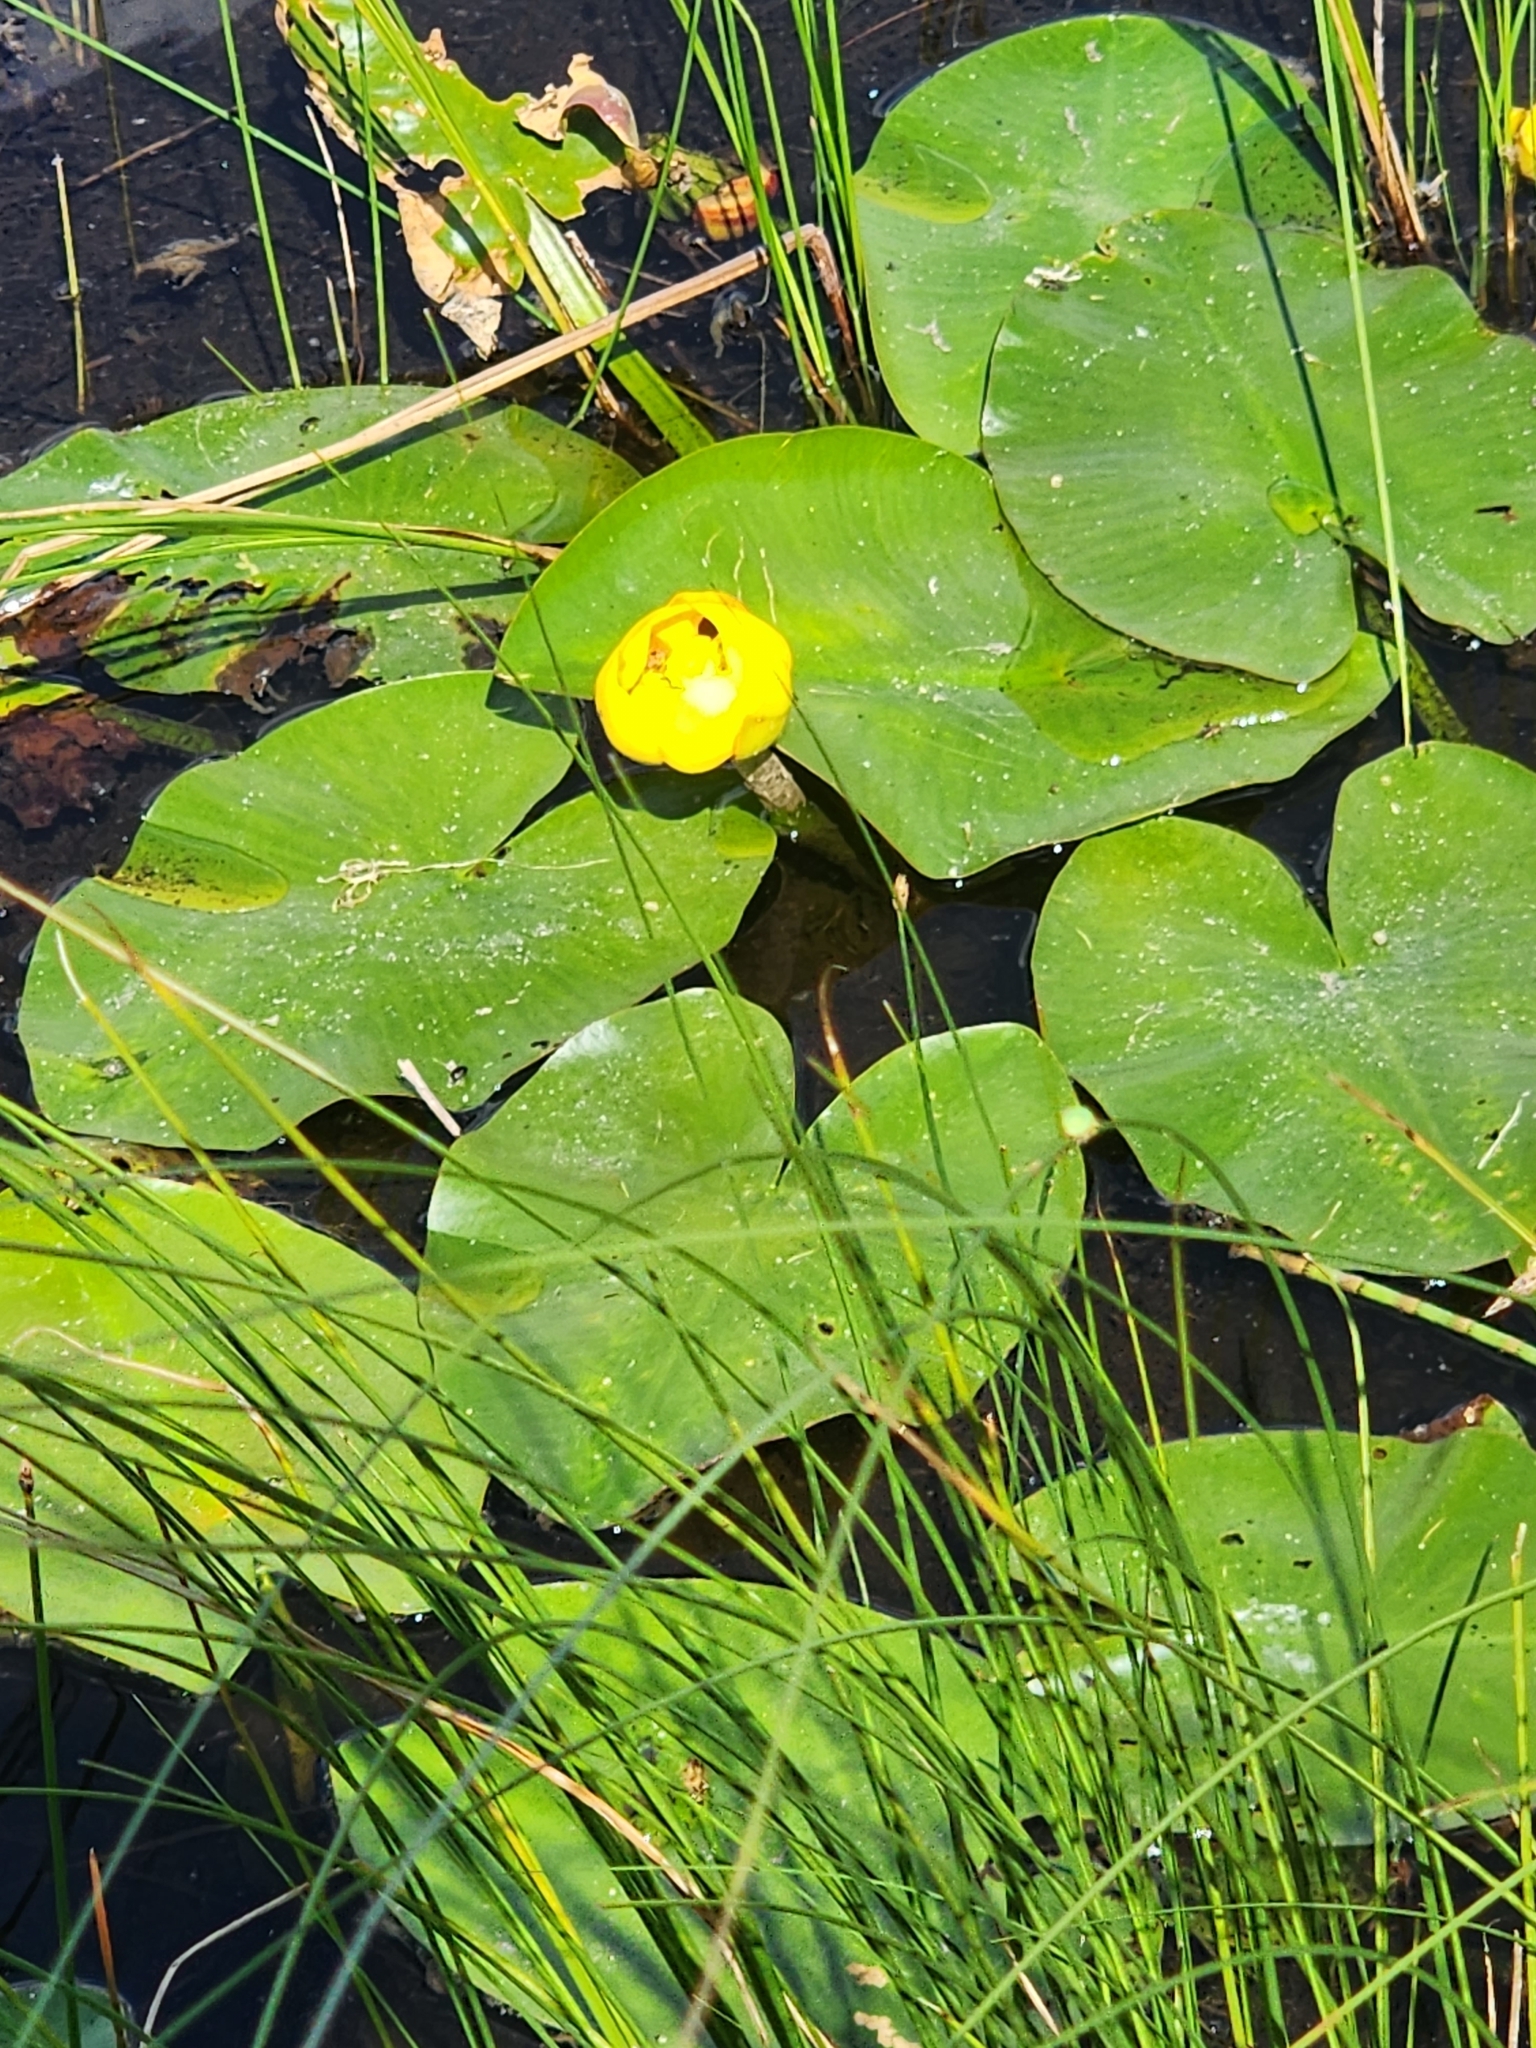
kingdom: Plantae
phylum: Tracheophyta
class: Magnoliopsida
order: Nymphaeales
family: Nymphaeaceae
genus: Nuphar
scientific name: Nuphar variegata
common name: Beaver-root
